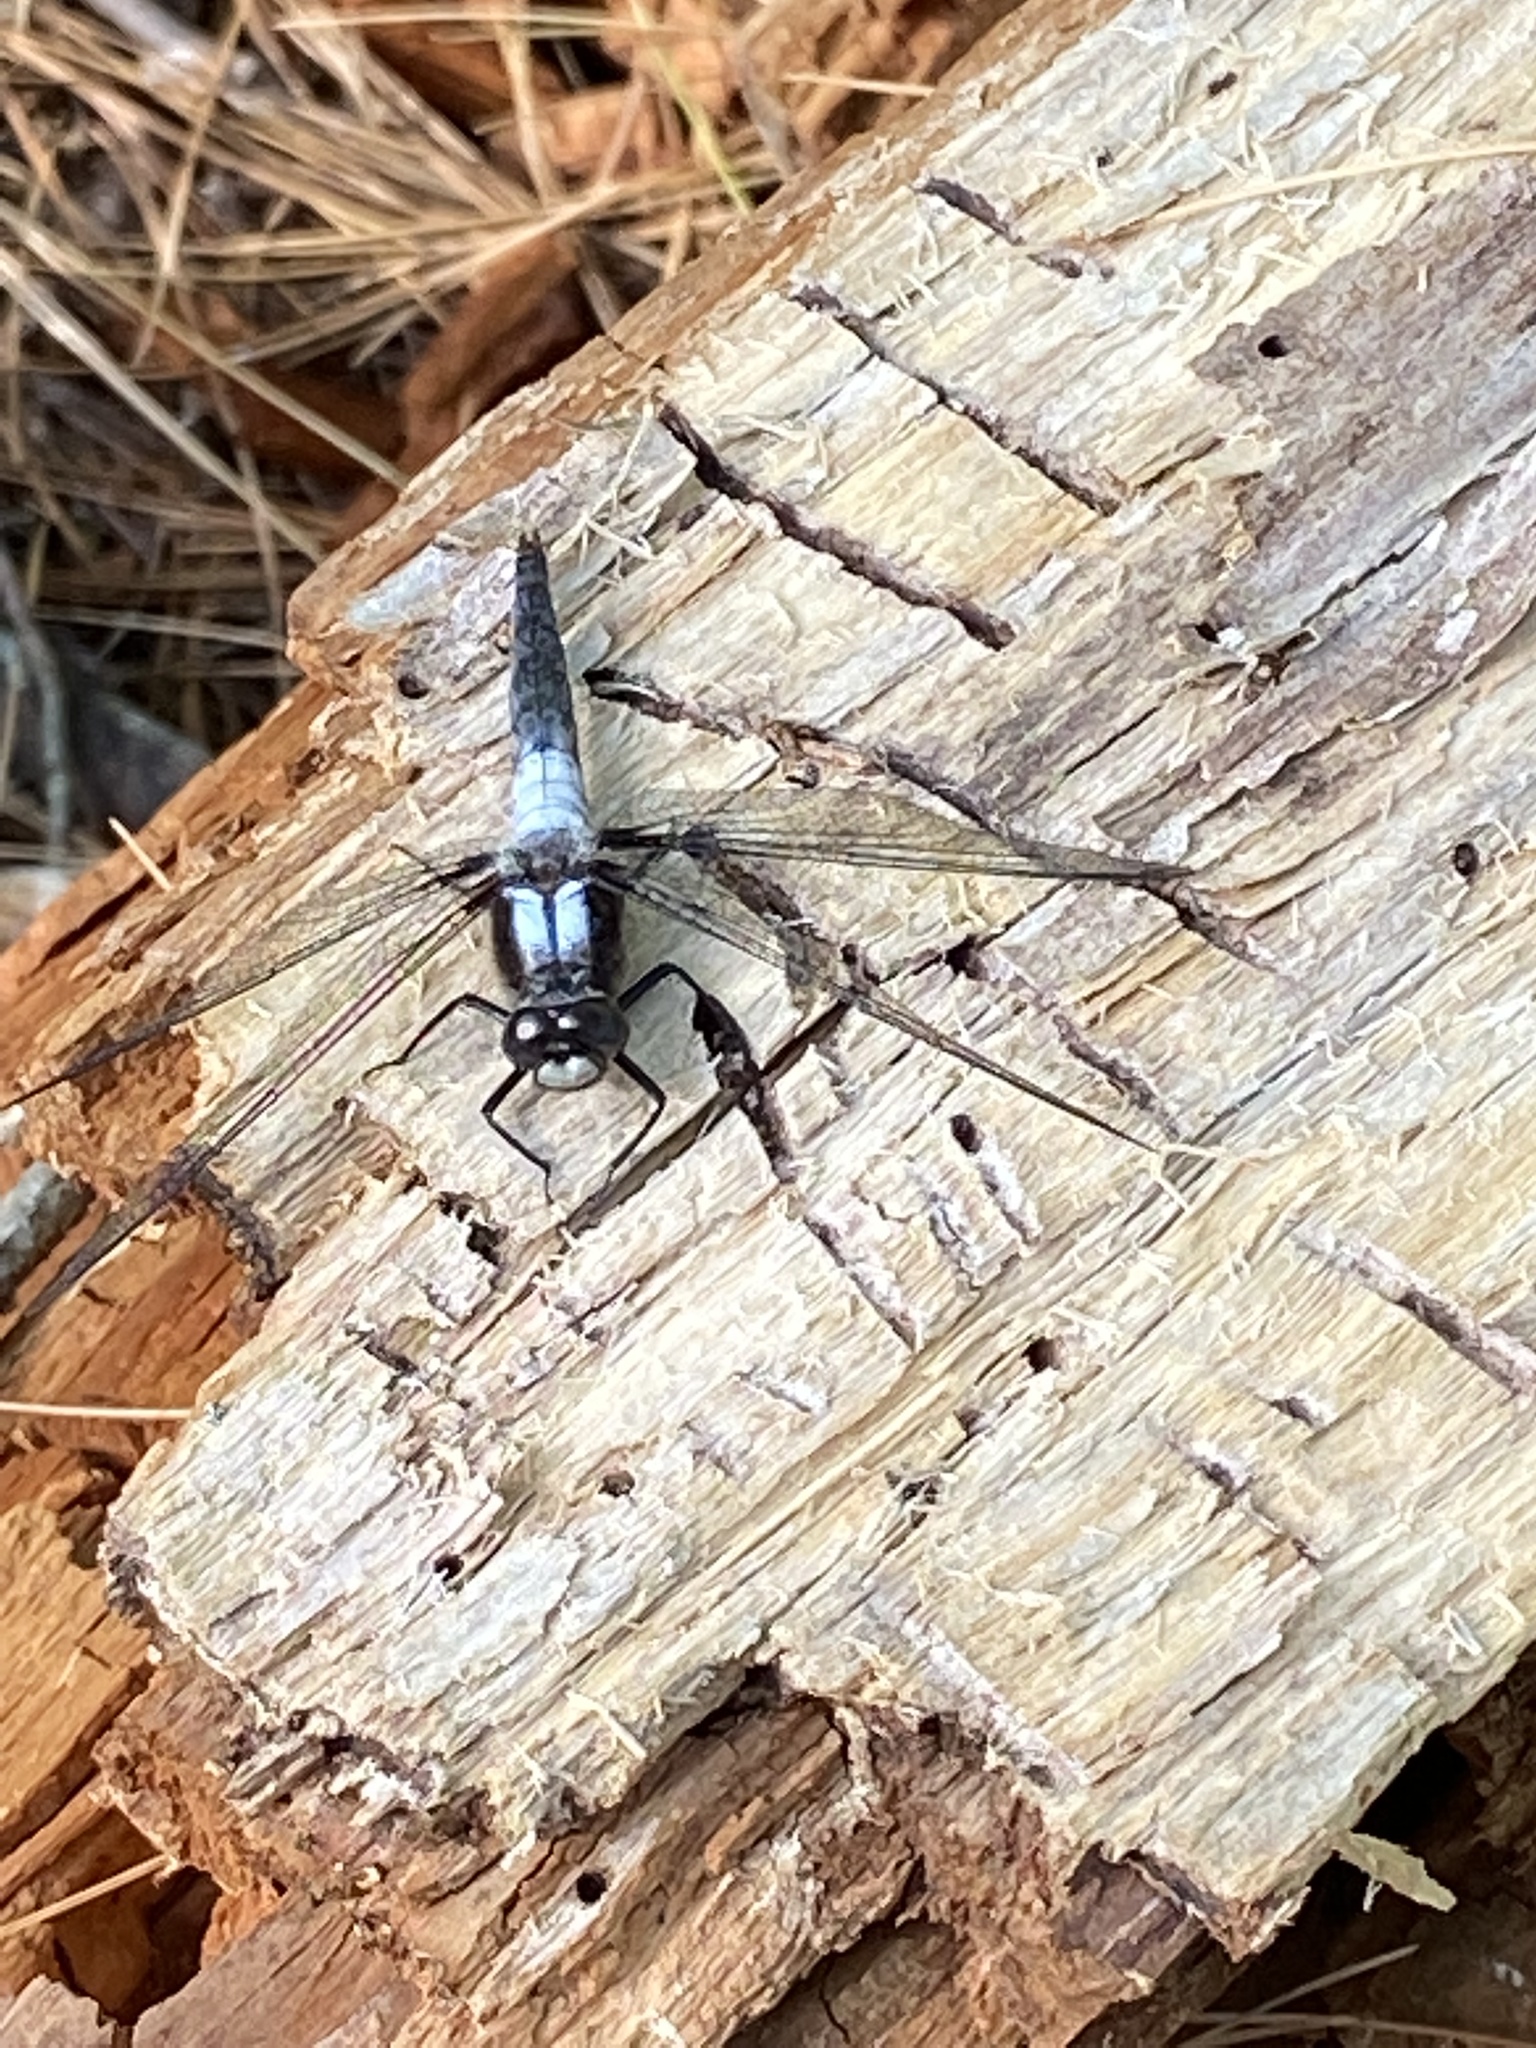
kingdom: Animalia
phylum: Arthropoda
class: Insecta
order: Odonata
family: Libellulidae
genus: Ladona
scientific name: Ladona julia
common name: Chalk-fronted corporal
